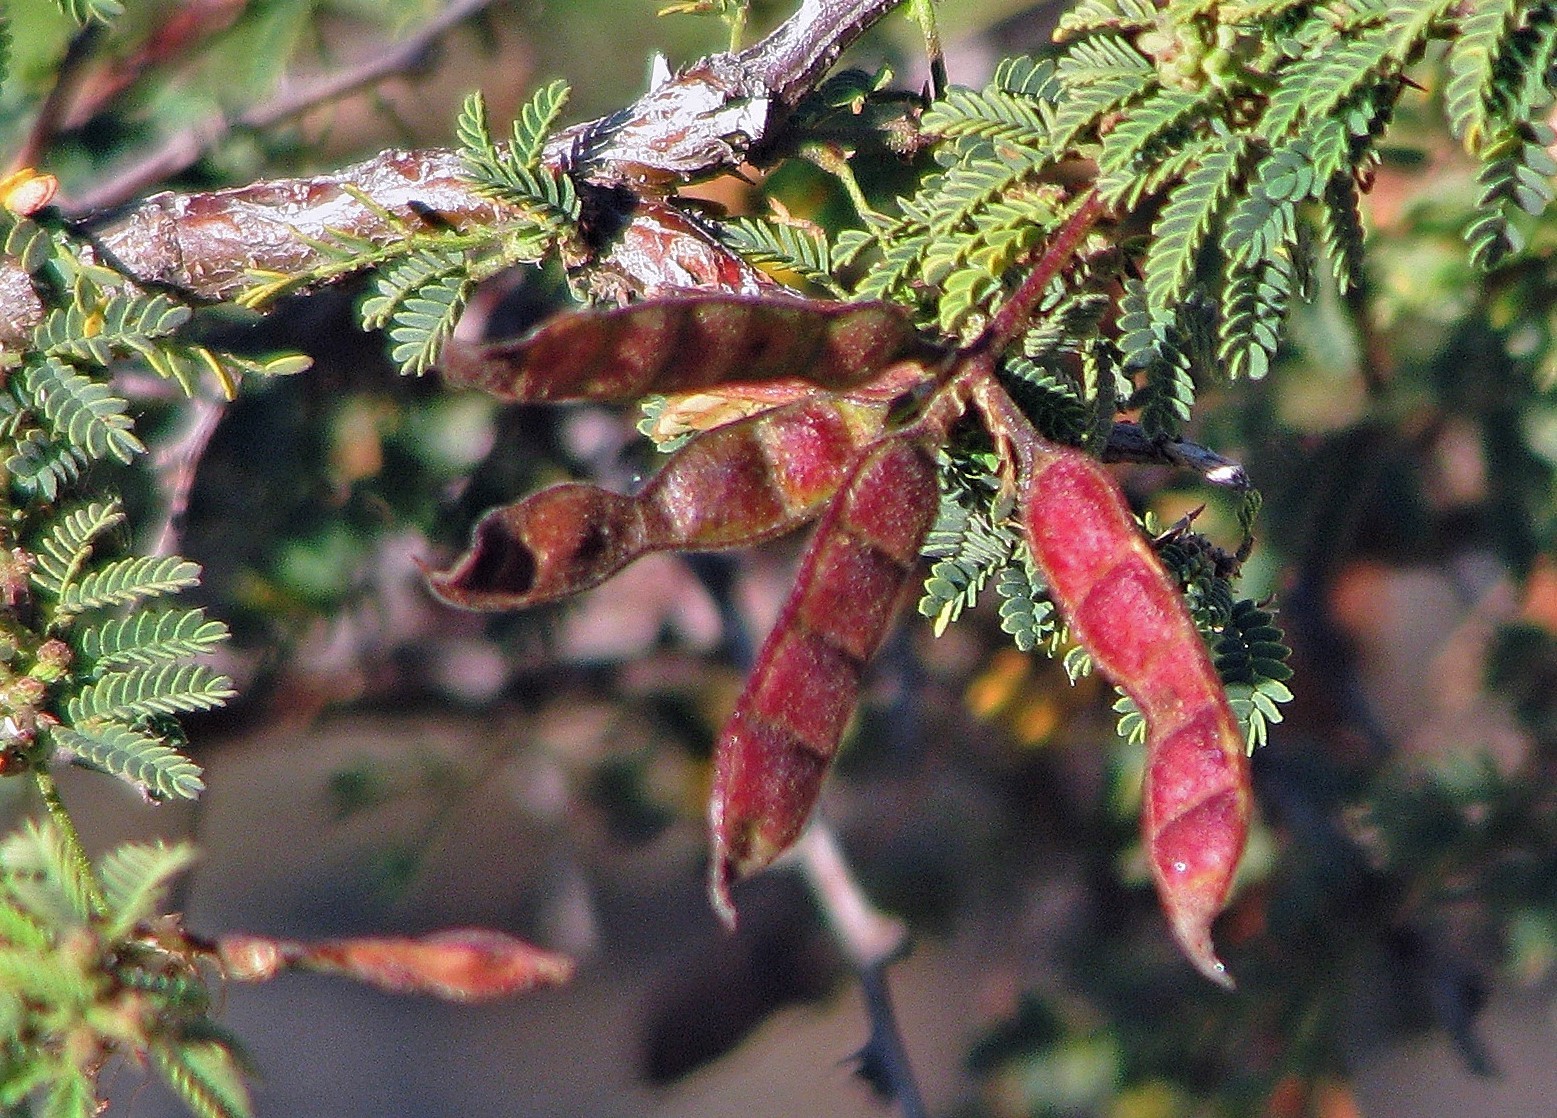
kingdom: Plantae
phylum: Tracheophyta
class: Magnoliopsida
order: Fabales
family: Fabaceae
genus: Mimosa
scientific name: Mimosa farinosa
